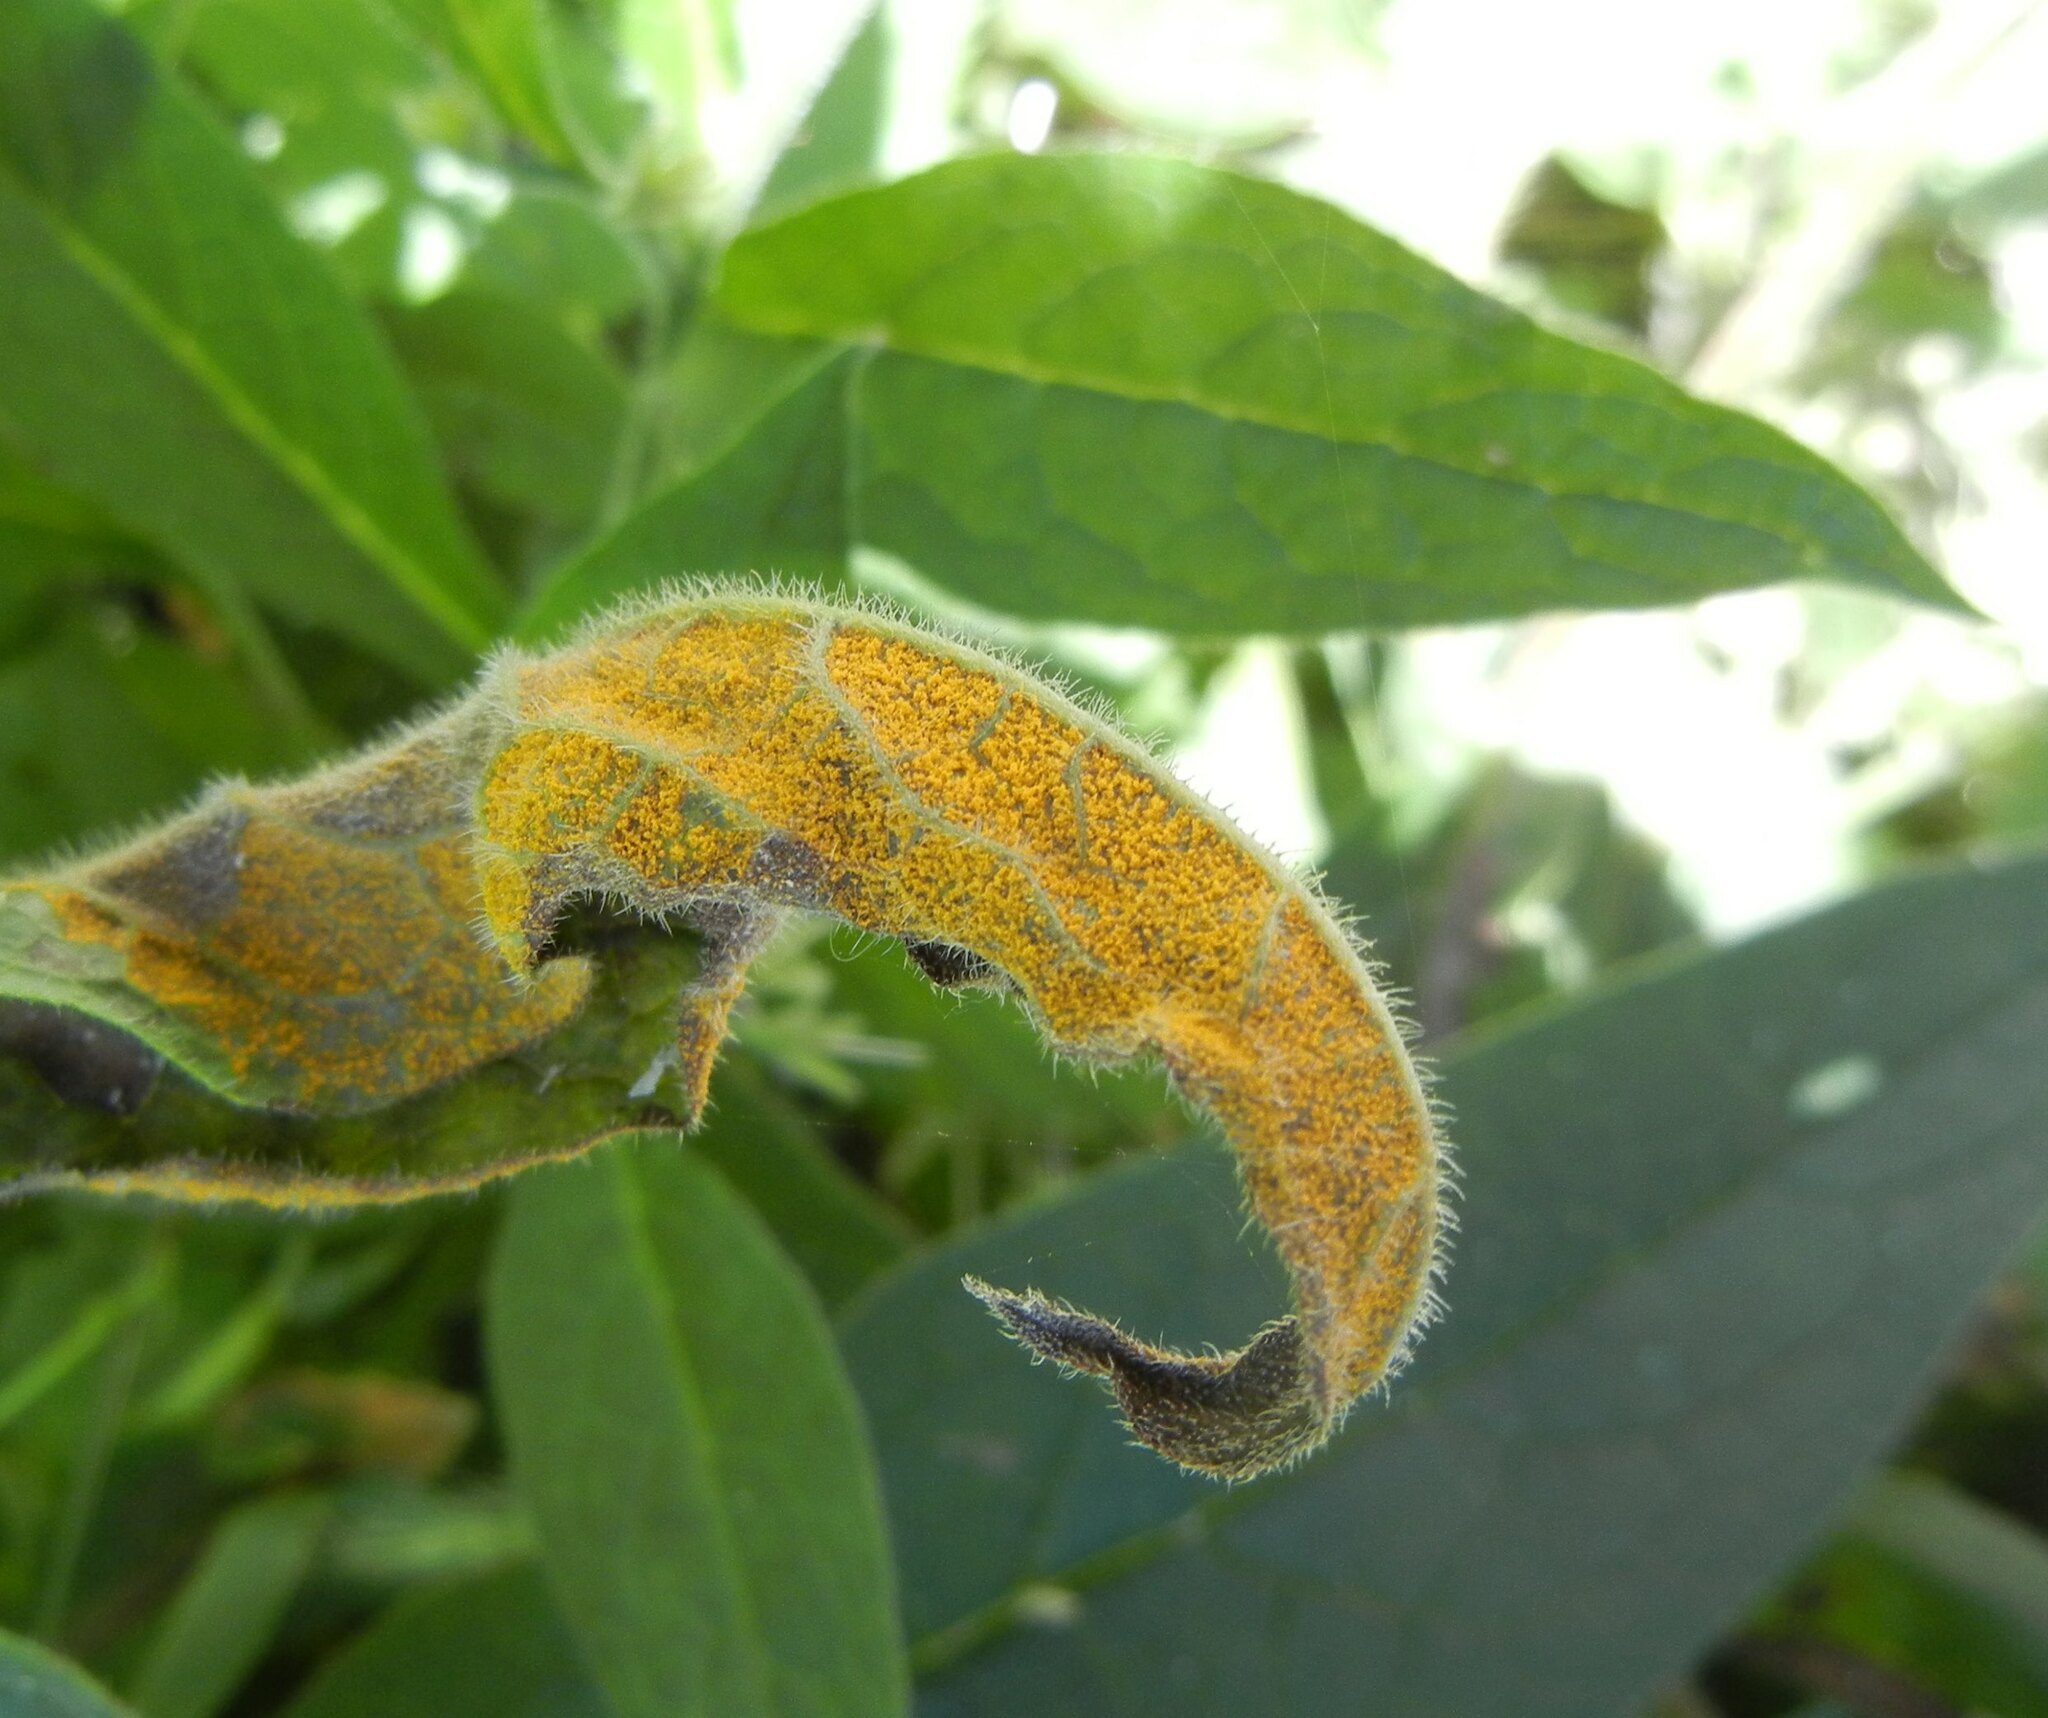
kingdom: Fungi
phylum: Basidiomycota
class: Pucciniomycetes
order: Pucciniales
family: Pucciniastraceae
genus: Pucciniastrum
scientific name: Pucciniastrum symphyti
